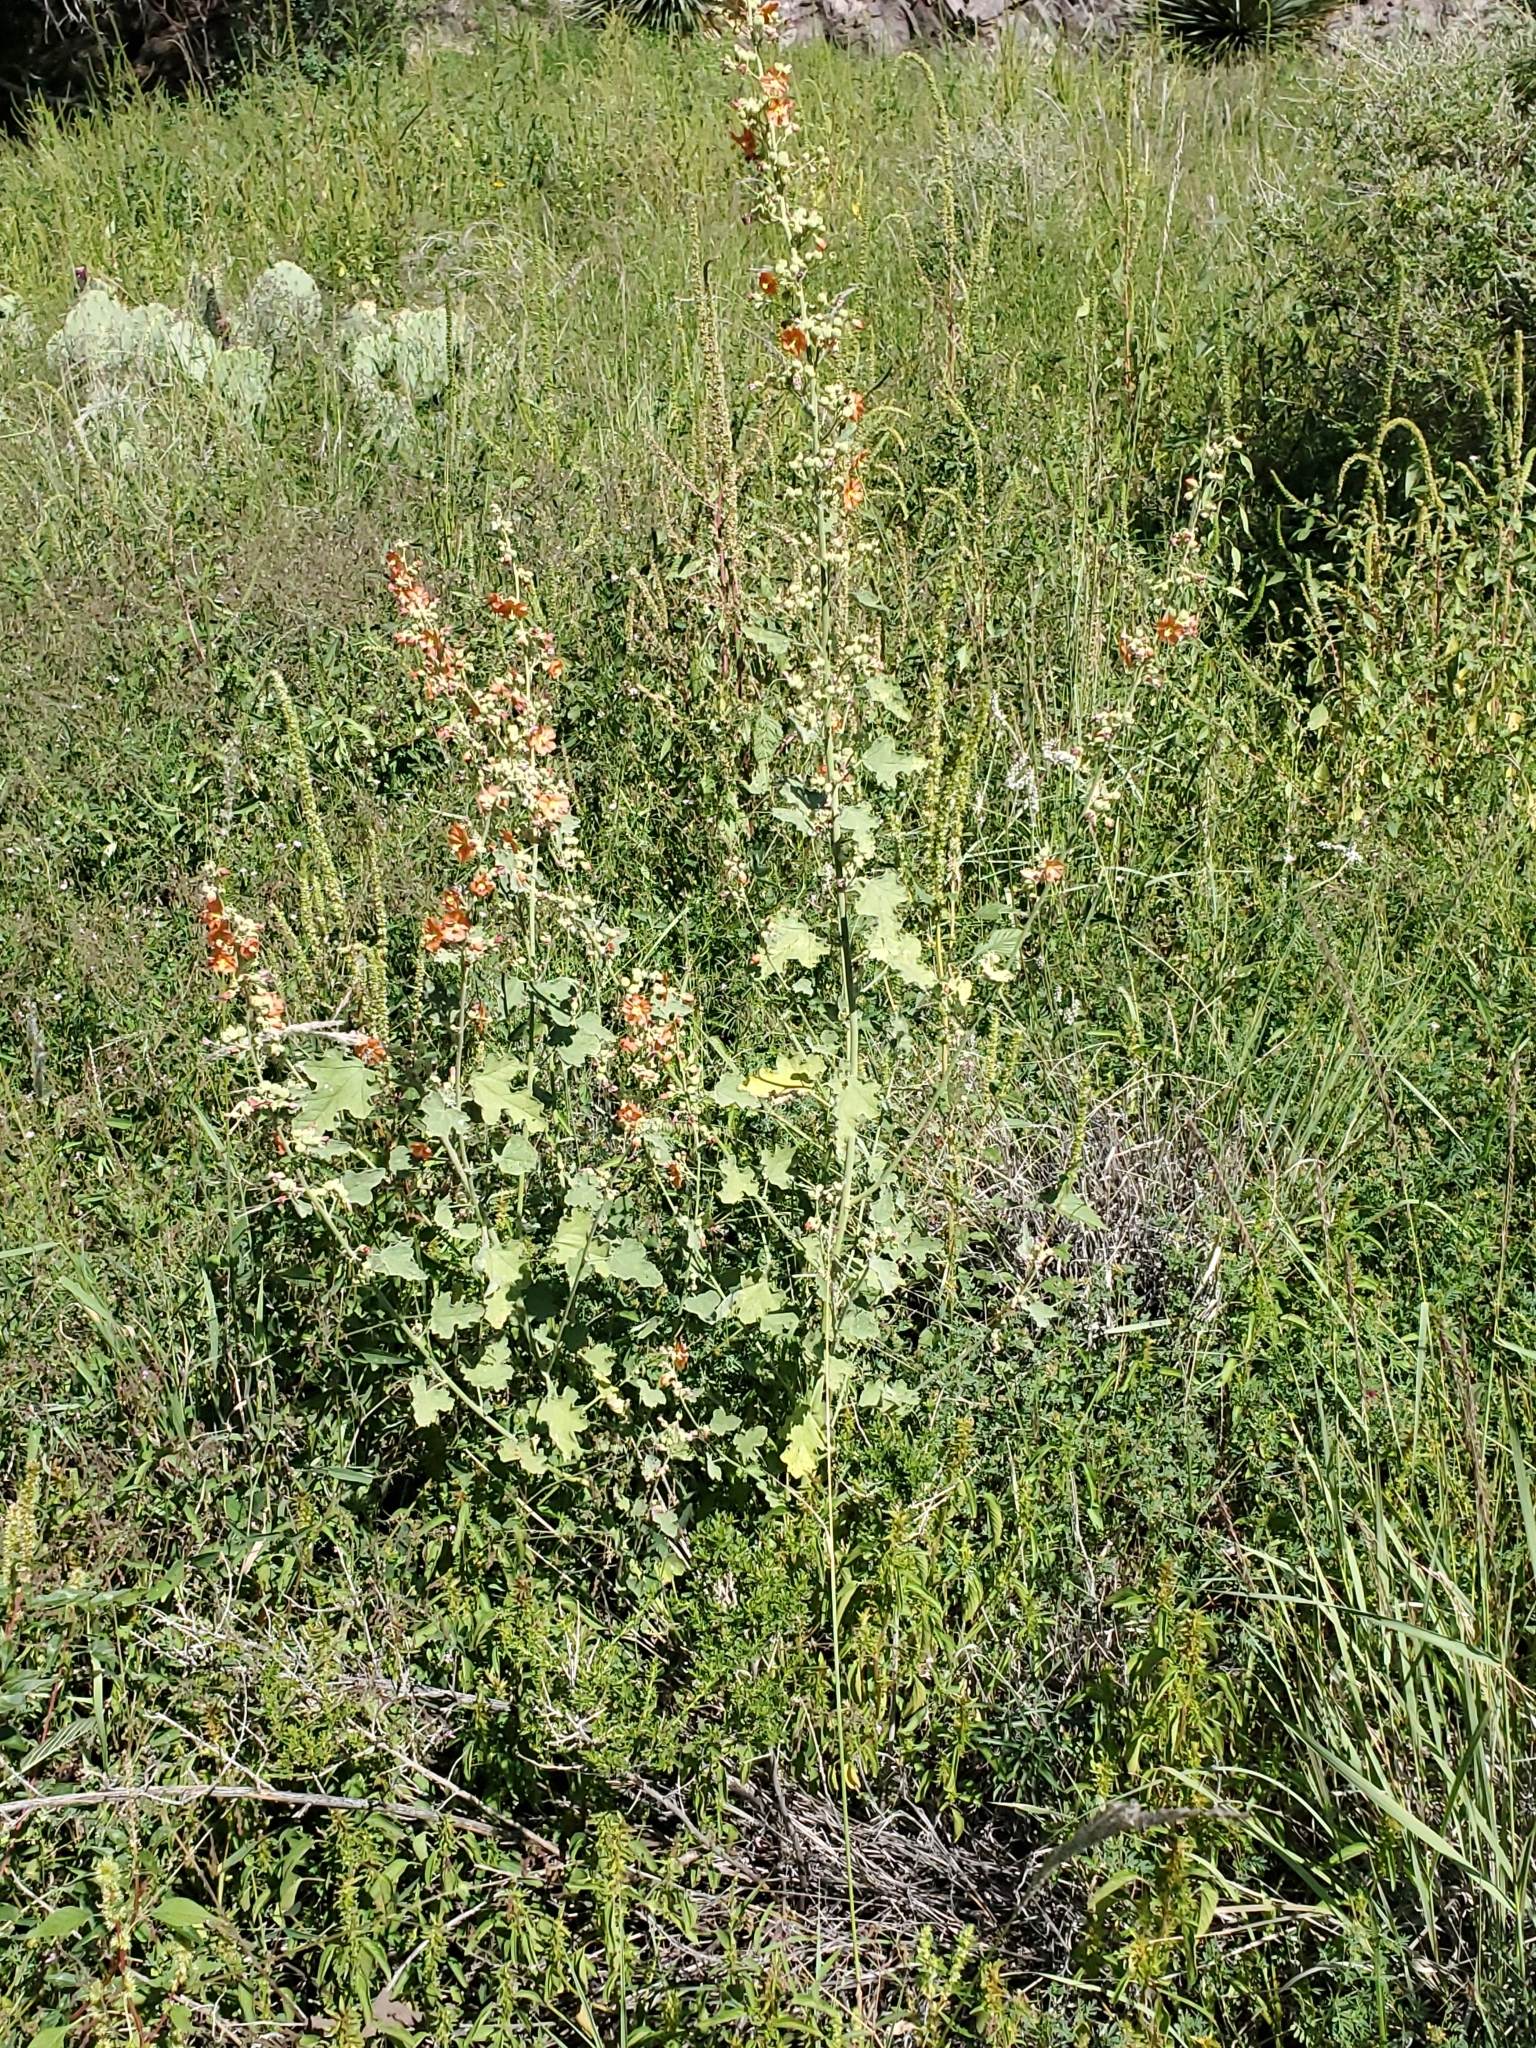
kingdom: Plantae
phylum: Tracheophyta
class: Magnoliopsida
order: Malvales
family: Malvaceae
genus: Sphaeralcea
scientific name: Sphaeralcea incana
